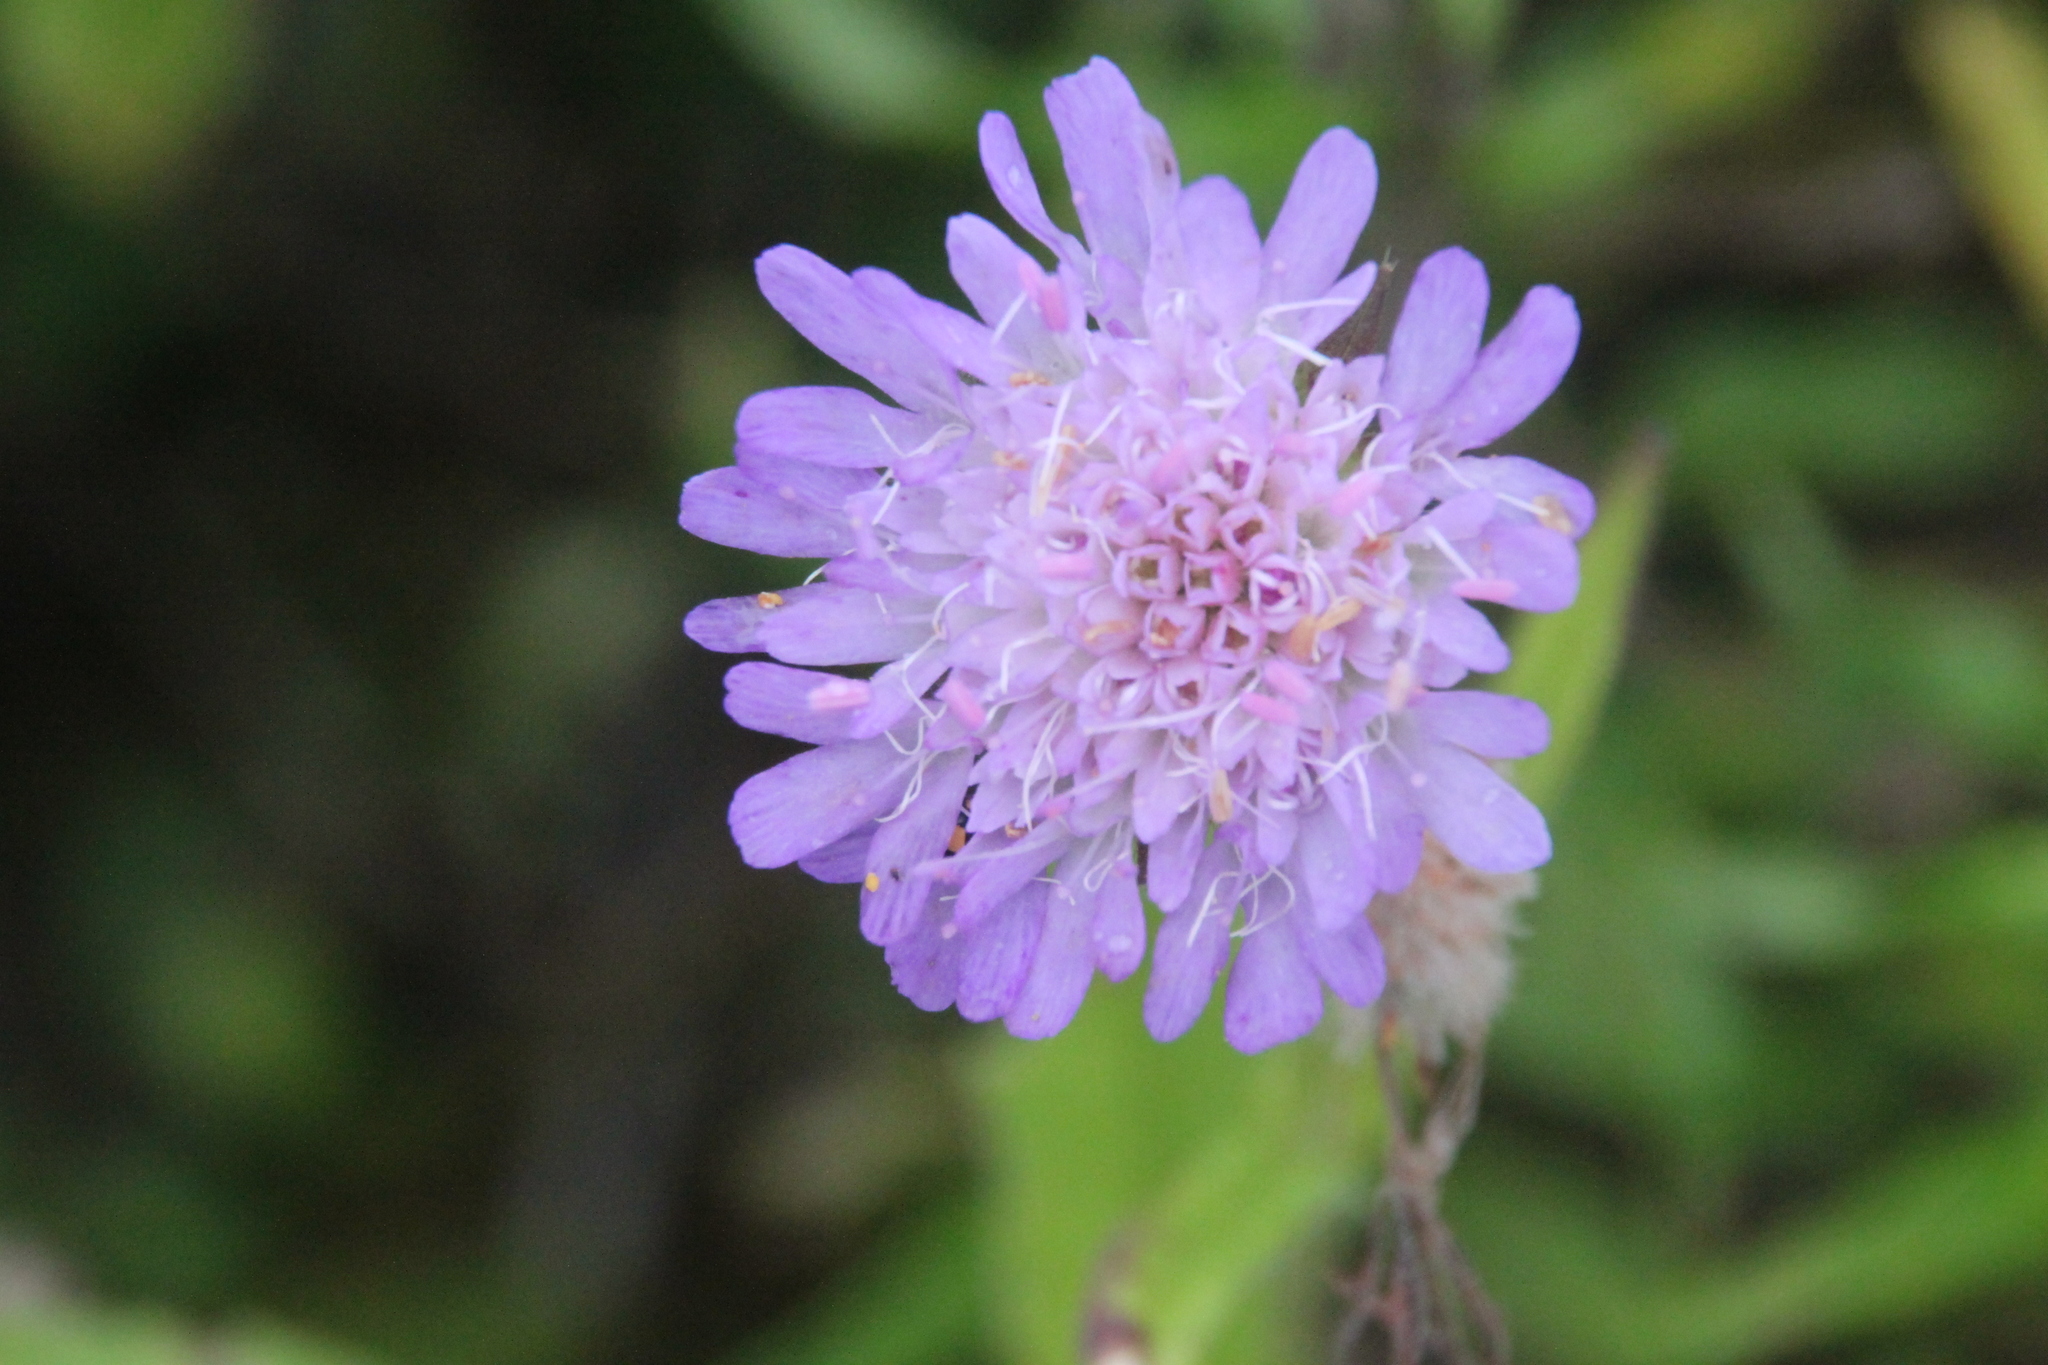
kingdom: Plantae
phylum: Tracheophyta
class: Magnoliopsida
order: Dipsacales
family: Caprifoliaceae
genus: Knautia
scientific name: Knautia arvensis
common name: Field scabiosa
